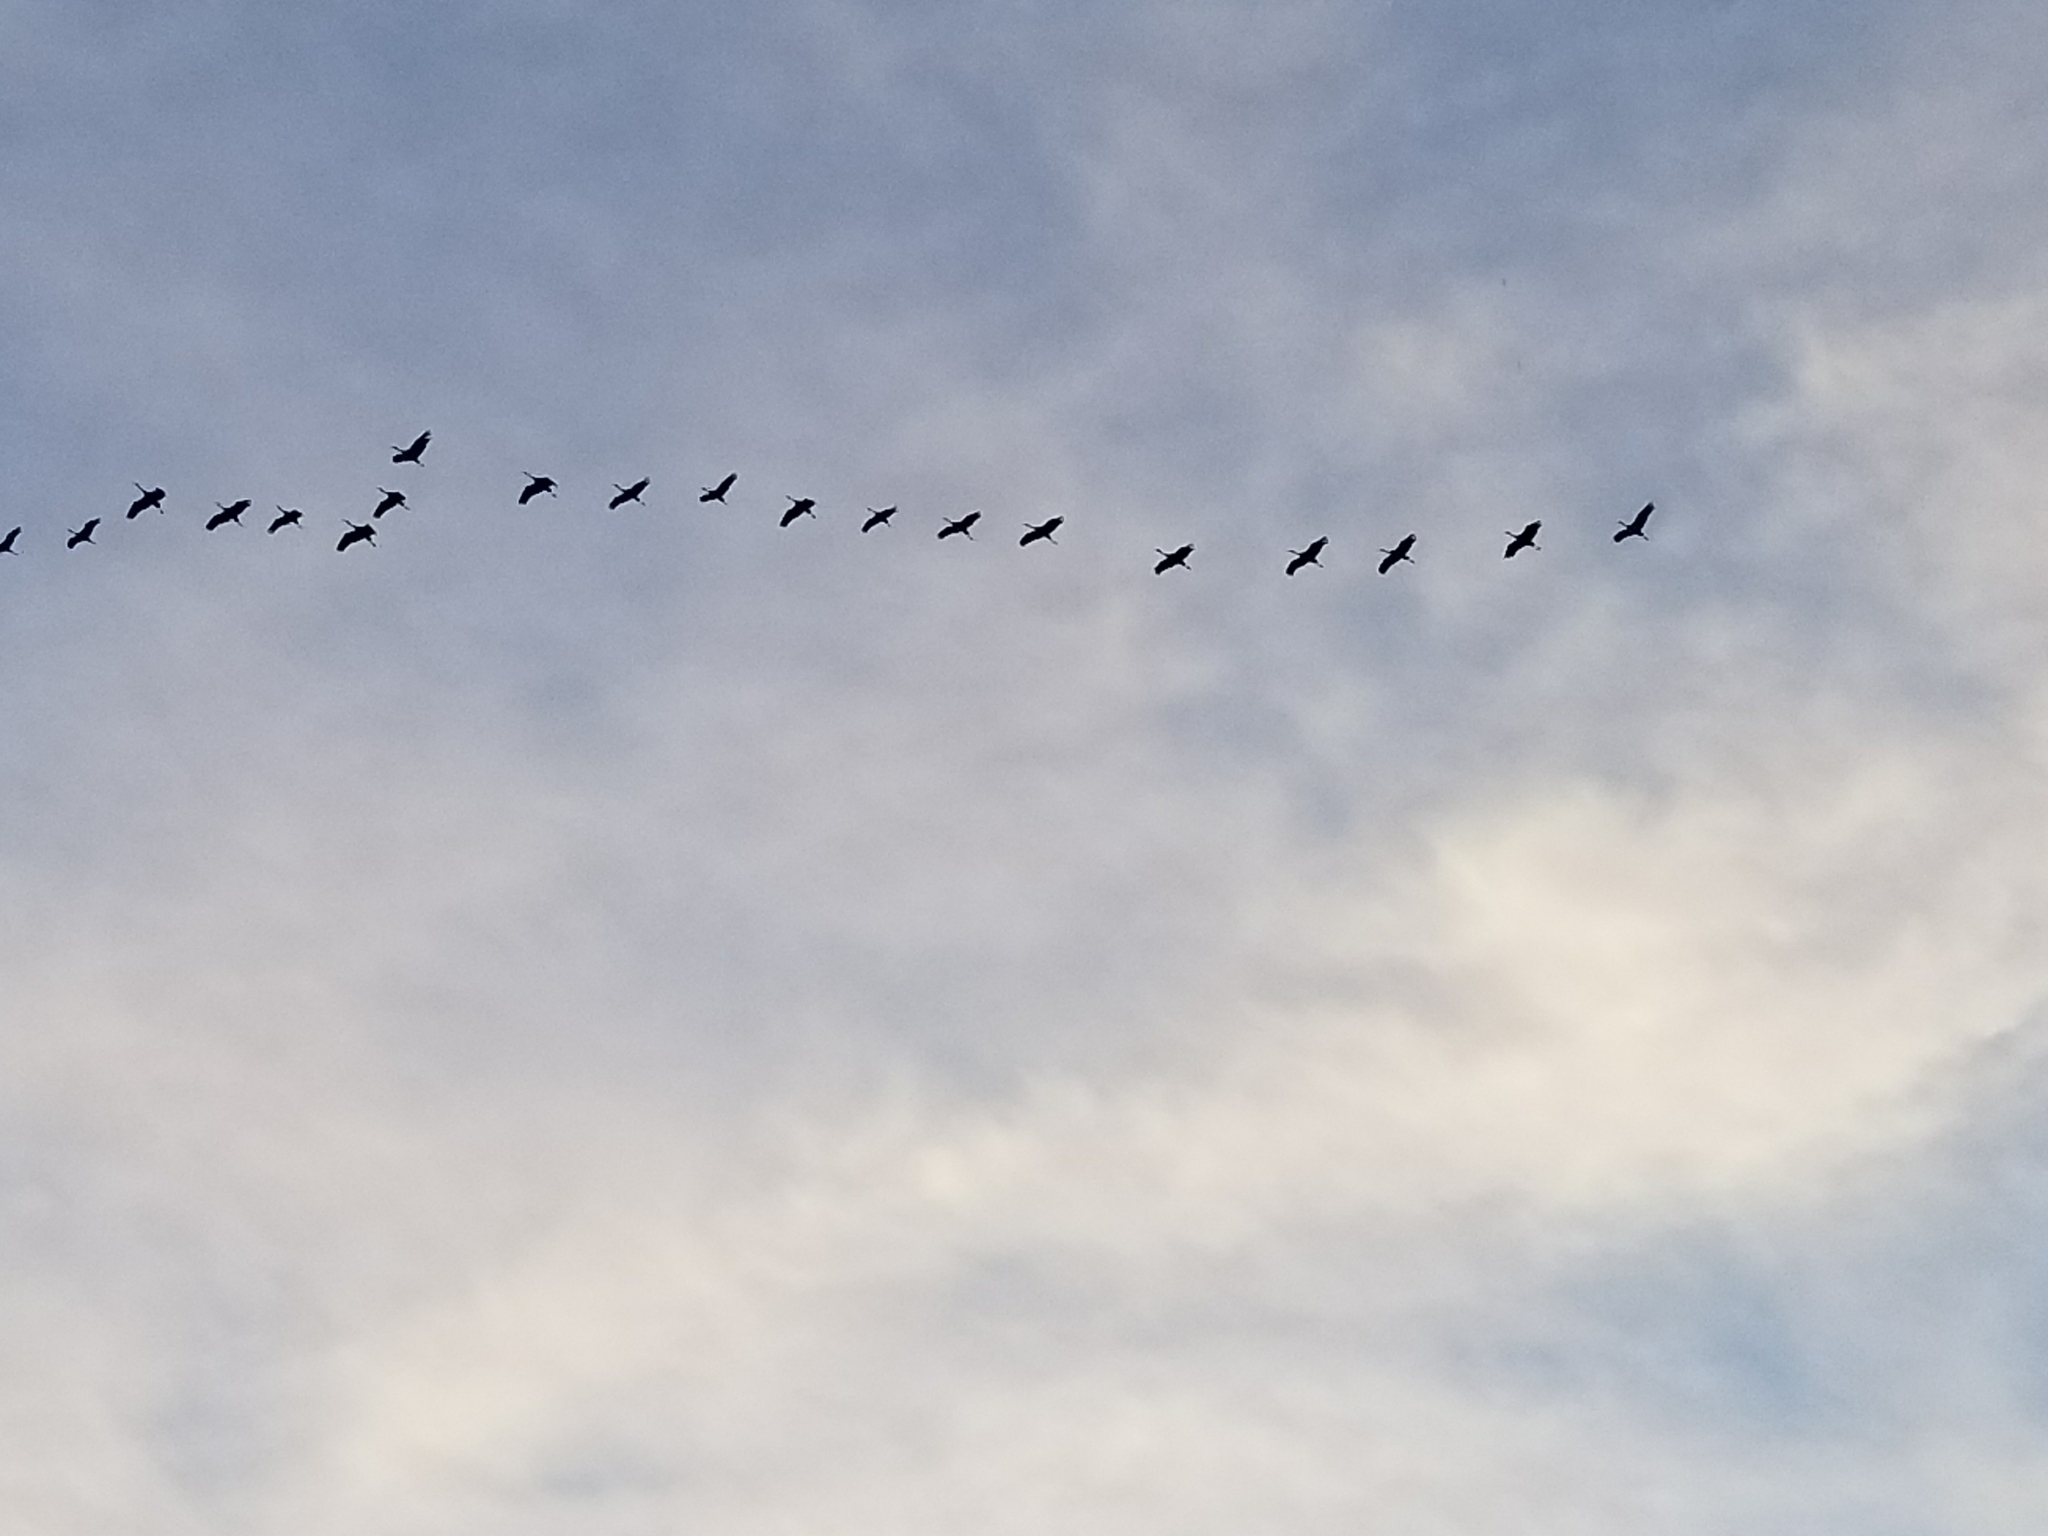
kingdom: Animalia
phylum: Chordata
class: Aves
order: Gruiformes
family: Gruidae
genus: Grus
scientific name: Grus canadensis
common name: Sandhill crane
